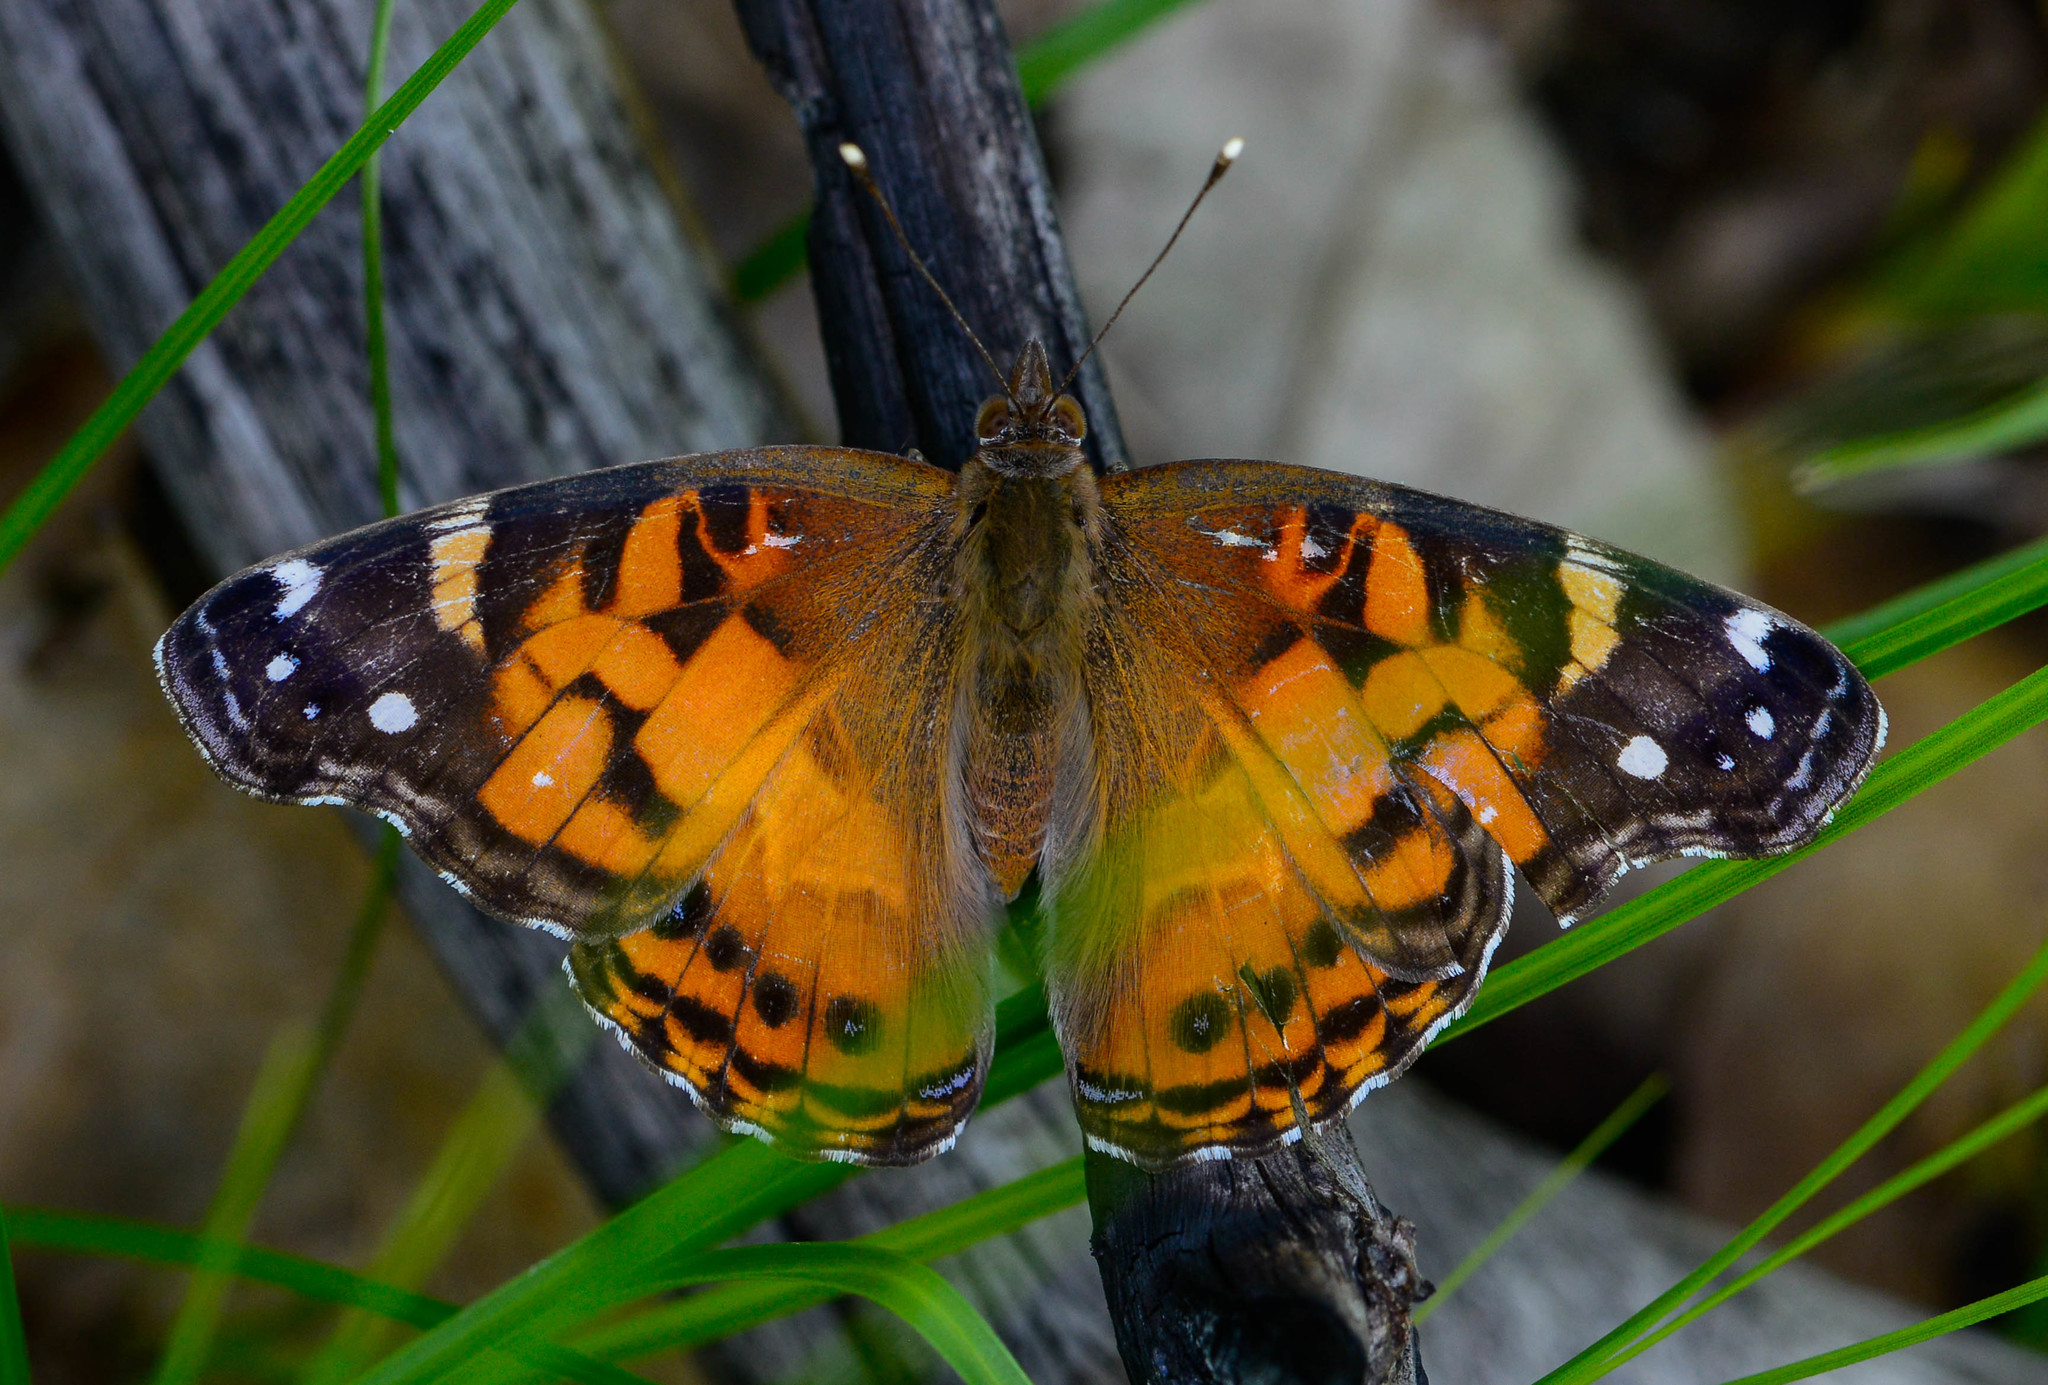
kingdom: Animalia
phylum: Arthropoda
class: Insecta
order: Lepidoptera
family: Nymphalidae
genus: Vanessa
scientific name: Vanessa virginiensis
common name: American lady
